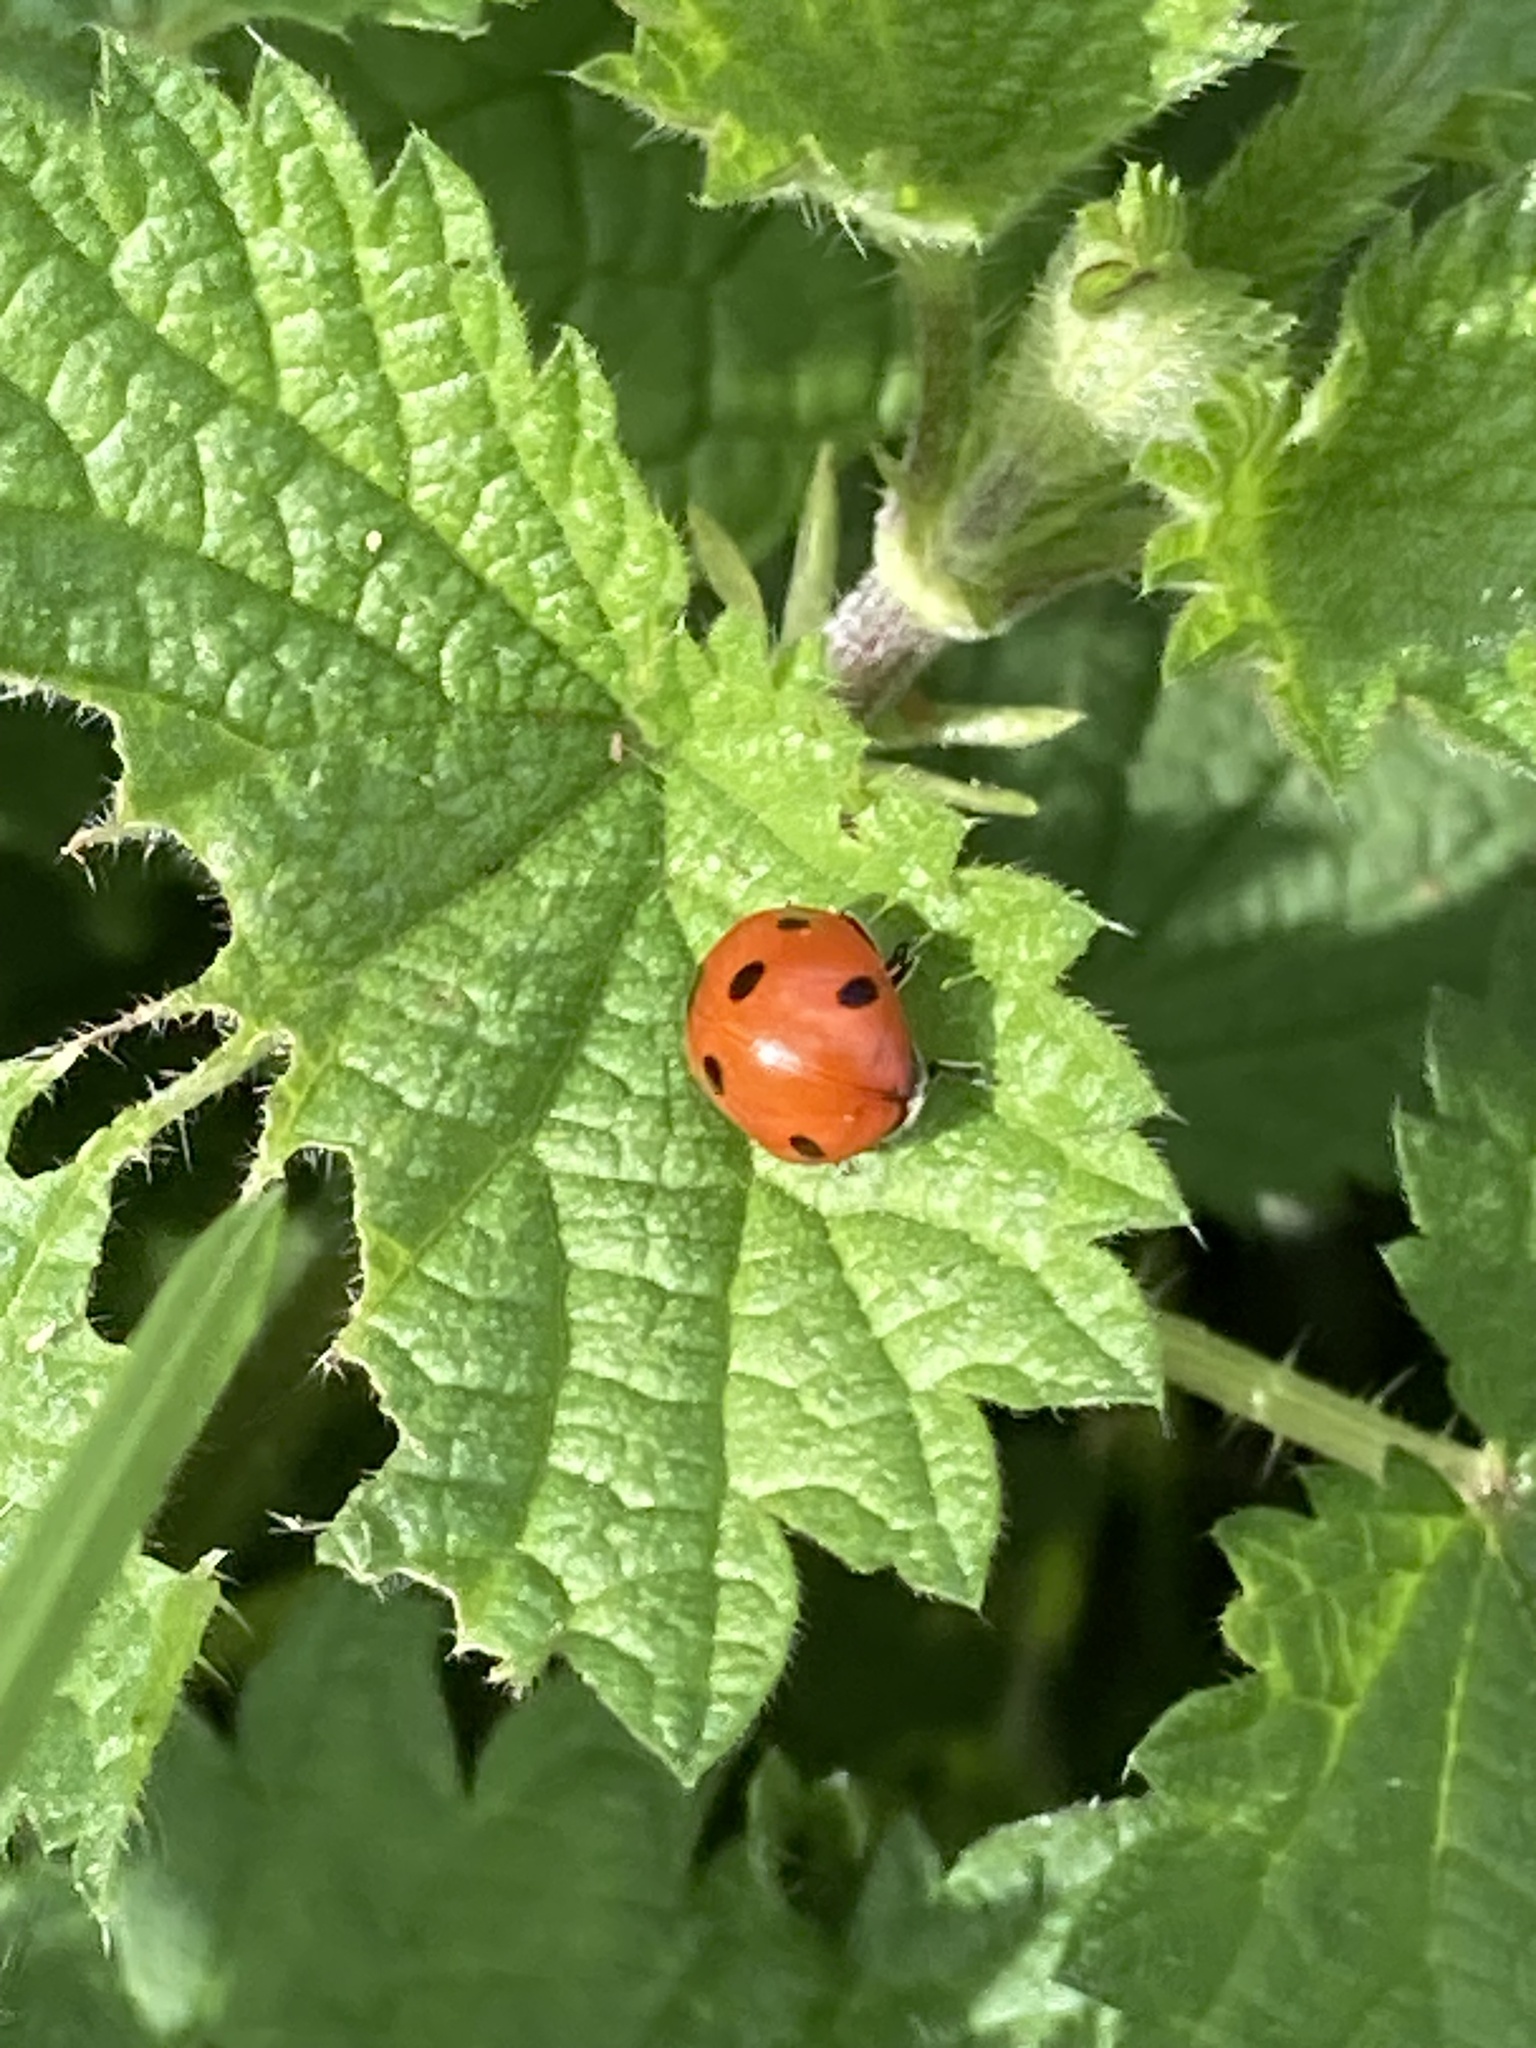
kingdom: Animalia
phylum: Arthropoda
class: Insecta
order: Coleoptera
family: Coccinellidae
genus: Coccinella
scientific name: Coccinella septempunctata
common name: Sevenspotted lady beetle
